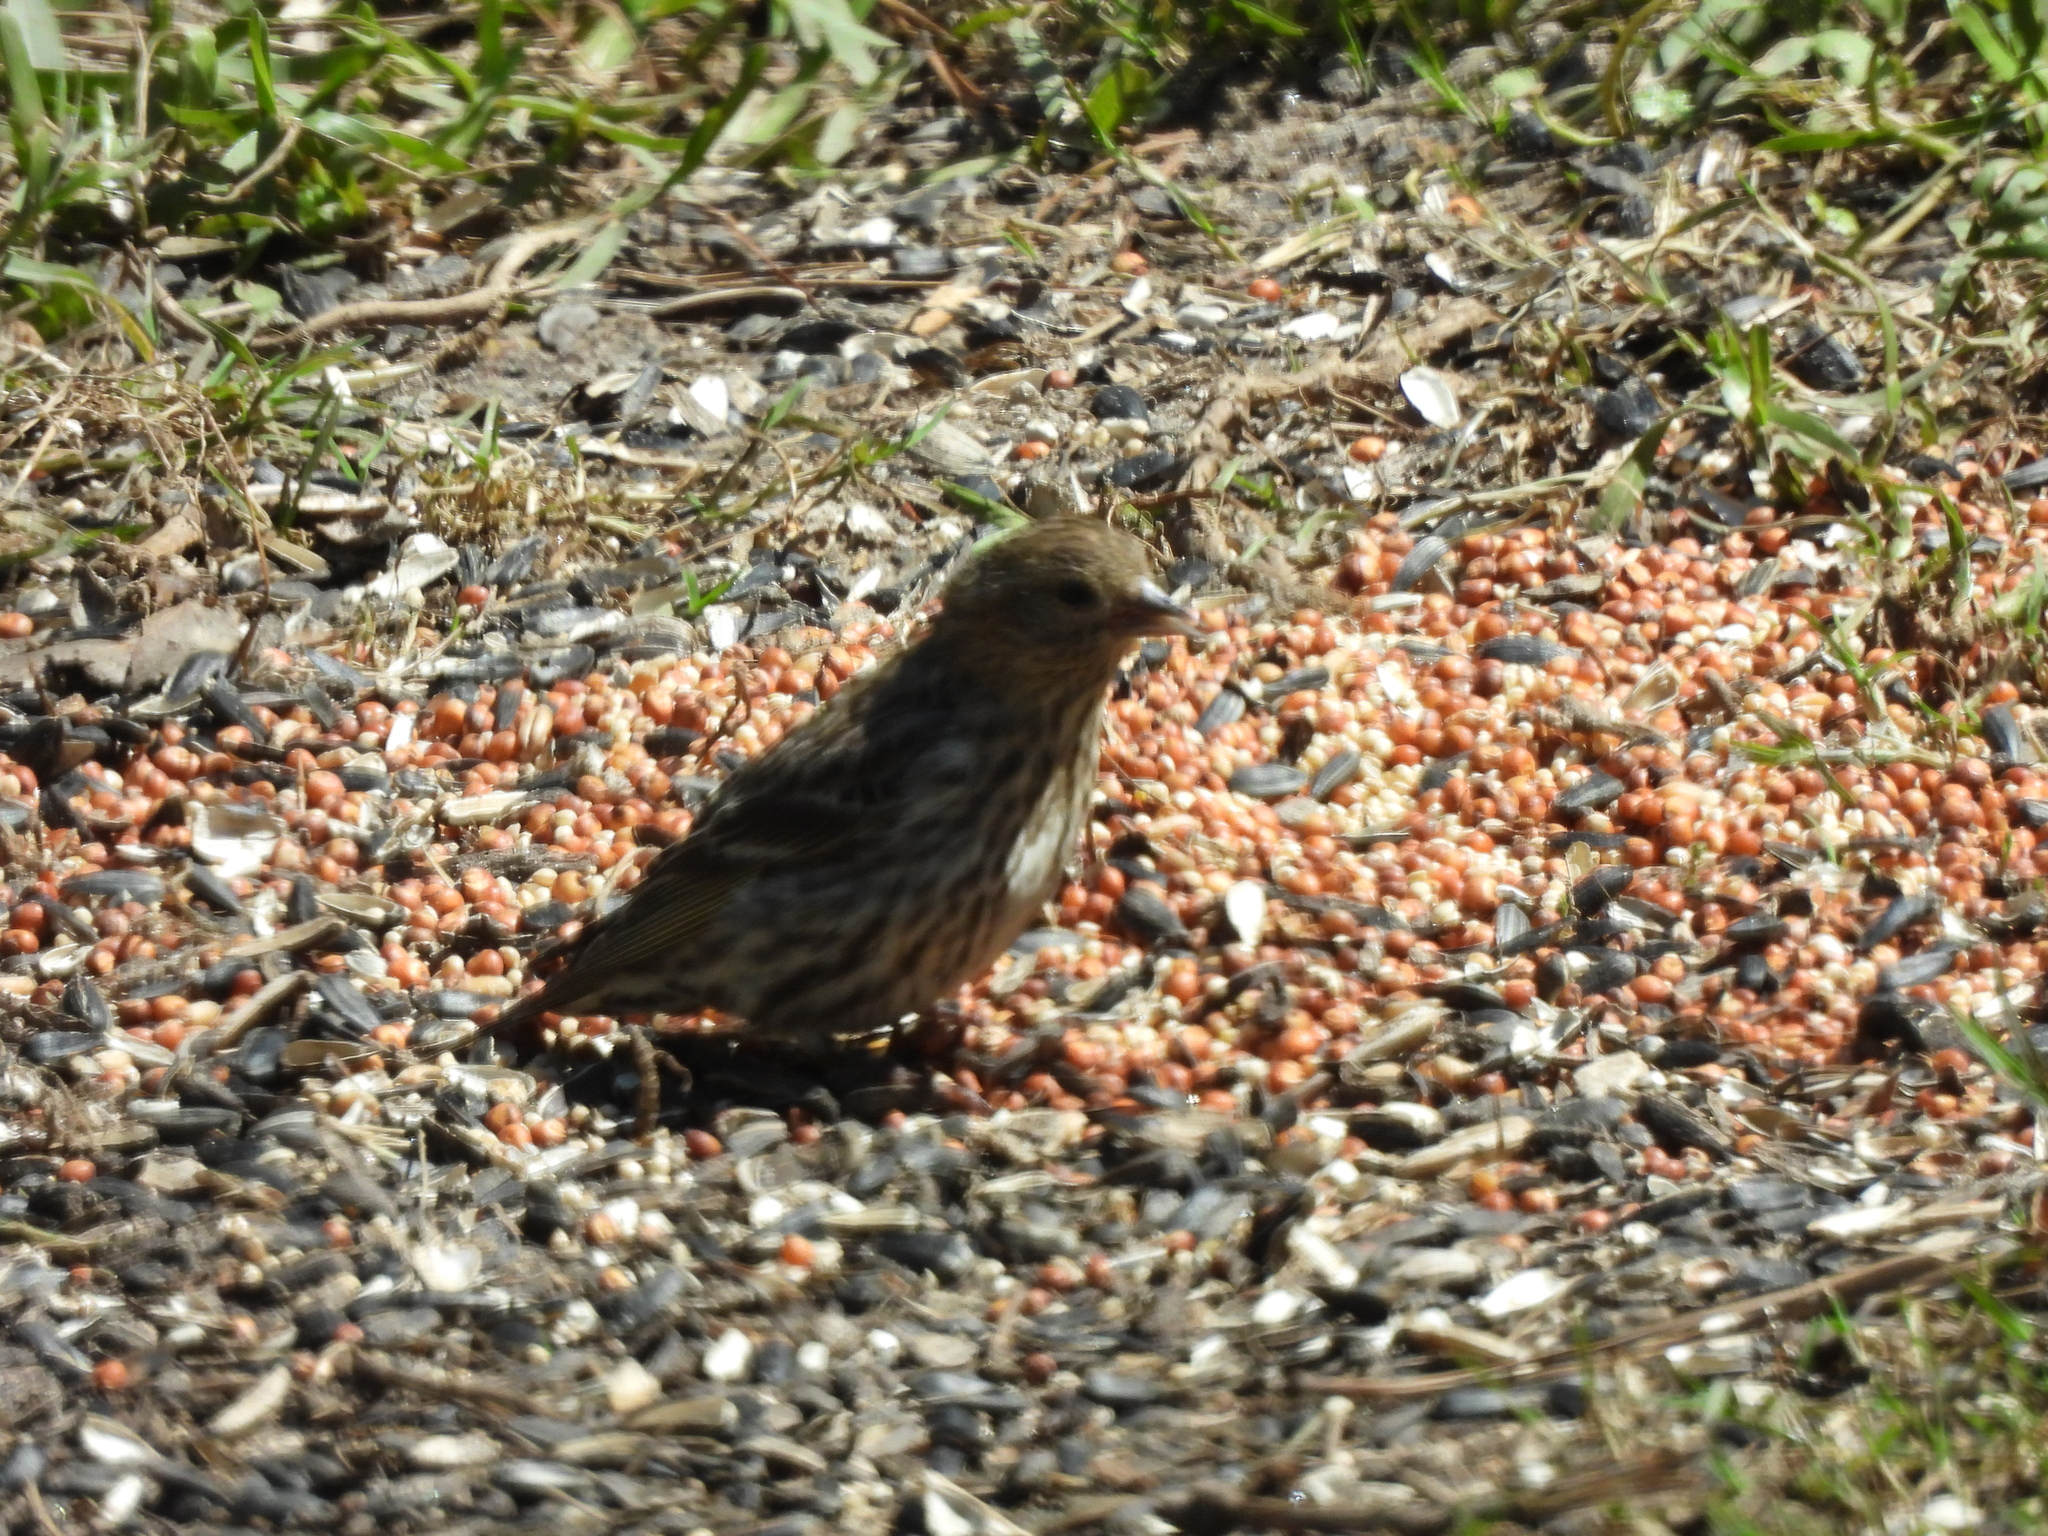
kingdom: Animalia
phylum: Chordata
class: Aves
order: Passeriformes
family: Fringillidae
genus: Spinus
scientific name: Spinus pinus
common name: Pine siskin
